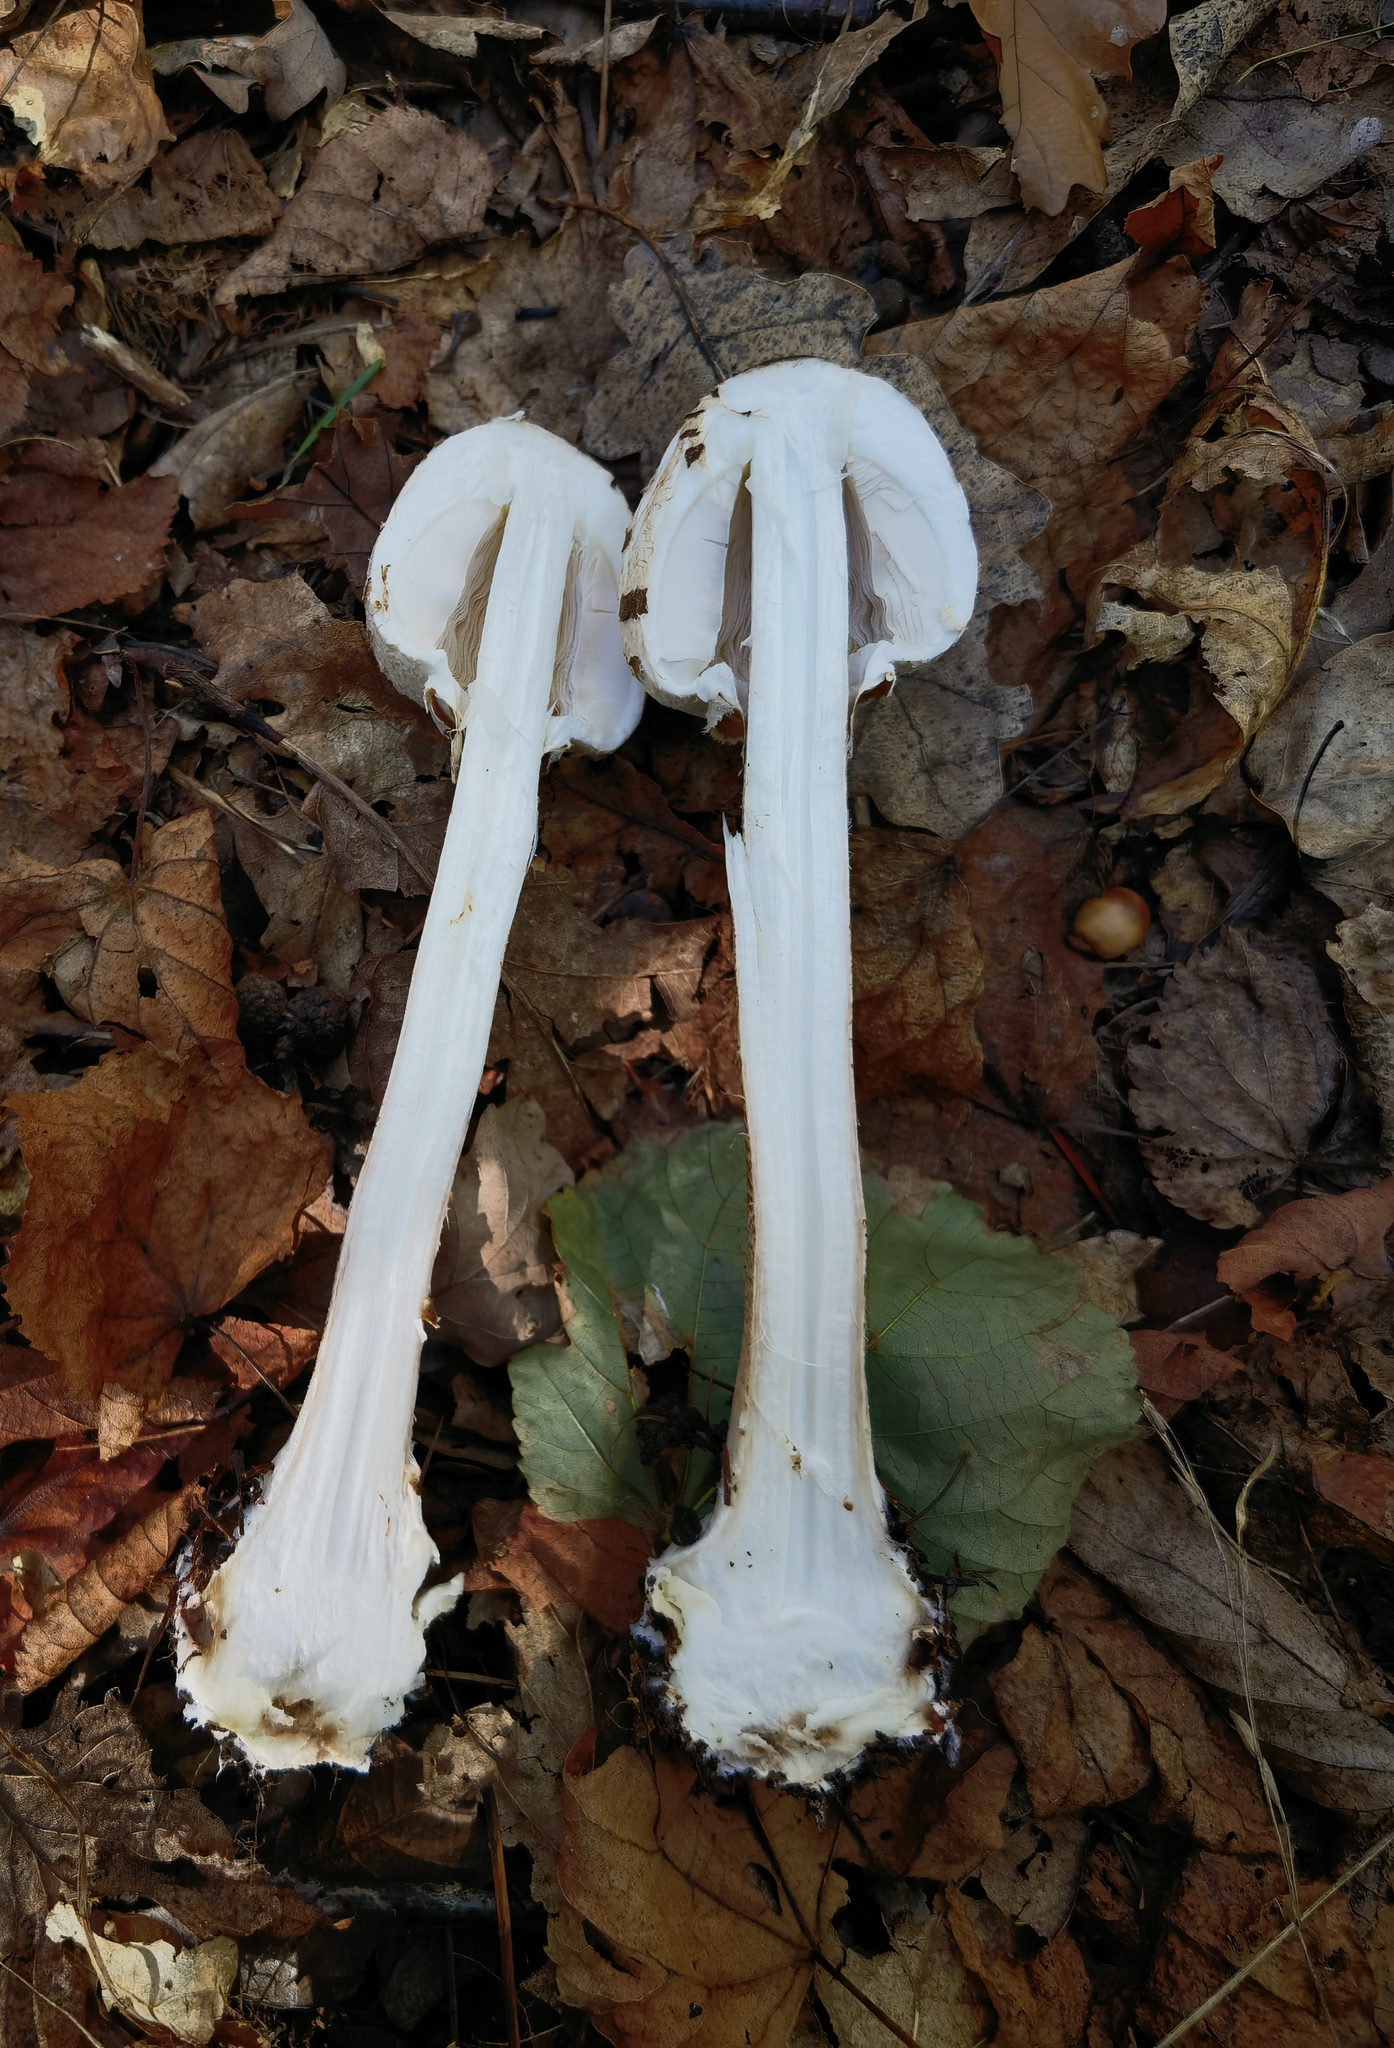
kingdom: Fungi
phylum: Basidiomycota
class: Agaricomycetes
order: Agaricales
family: Agaricaceae
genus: Macrolepiota
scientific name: Macrolepiota procera
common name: Parasol
